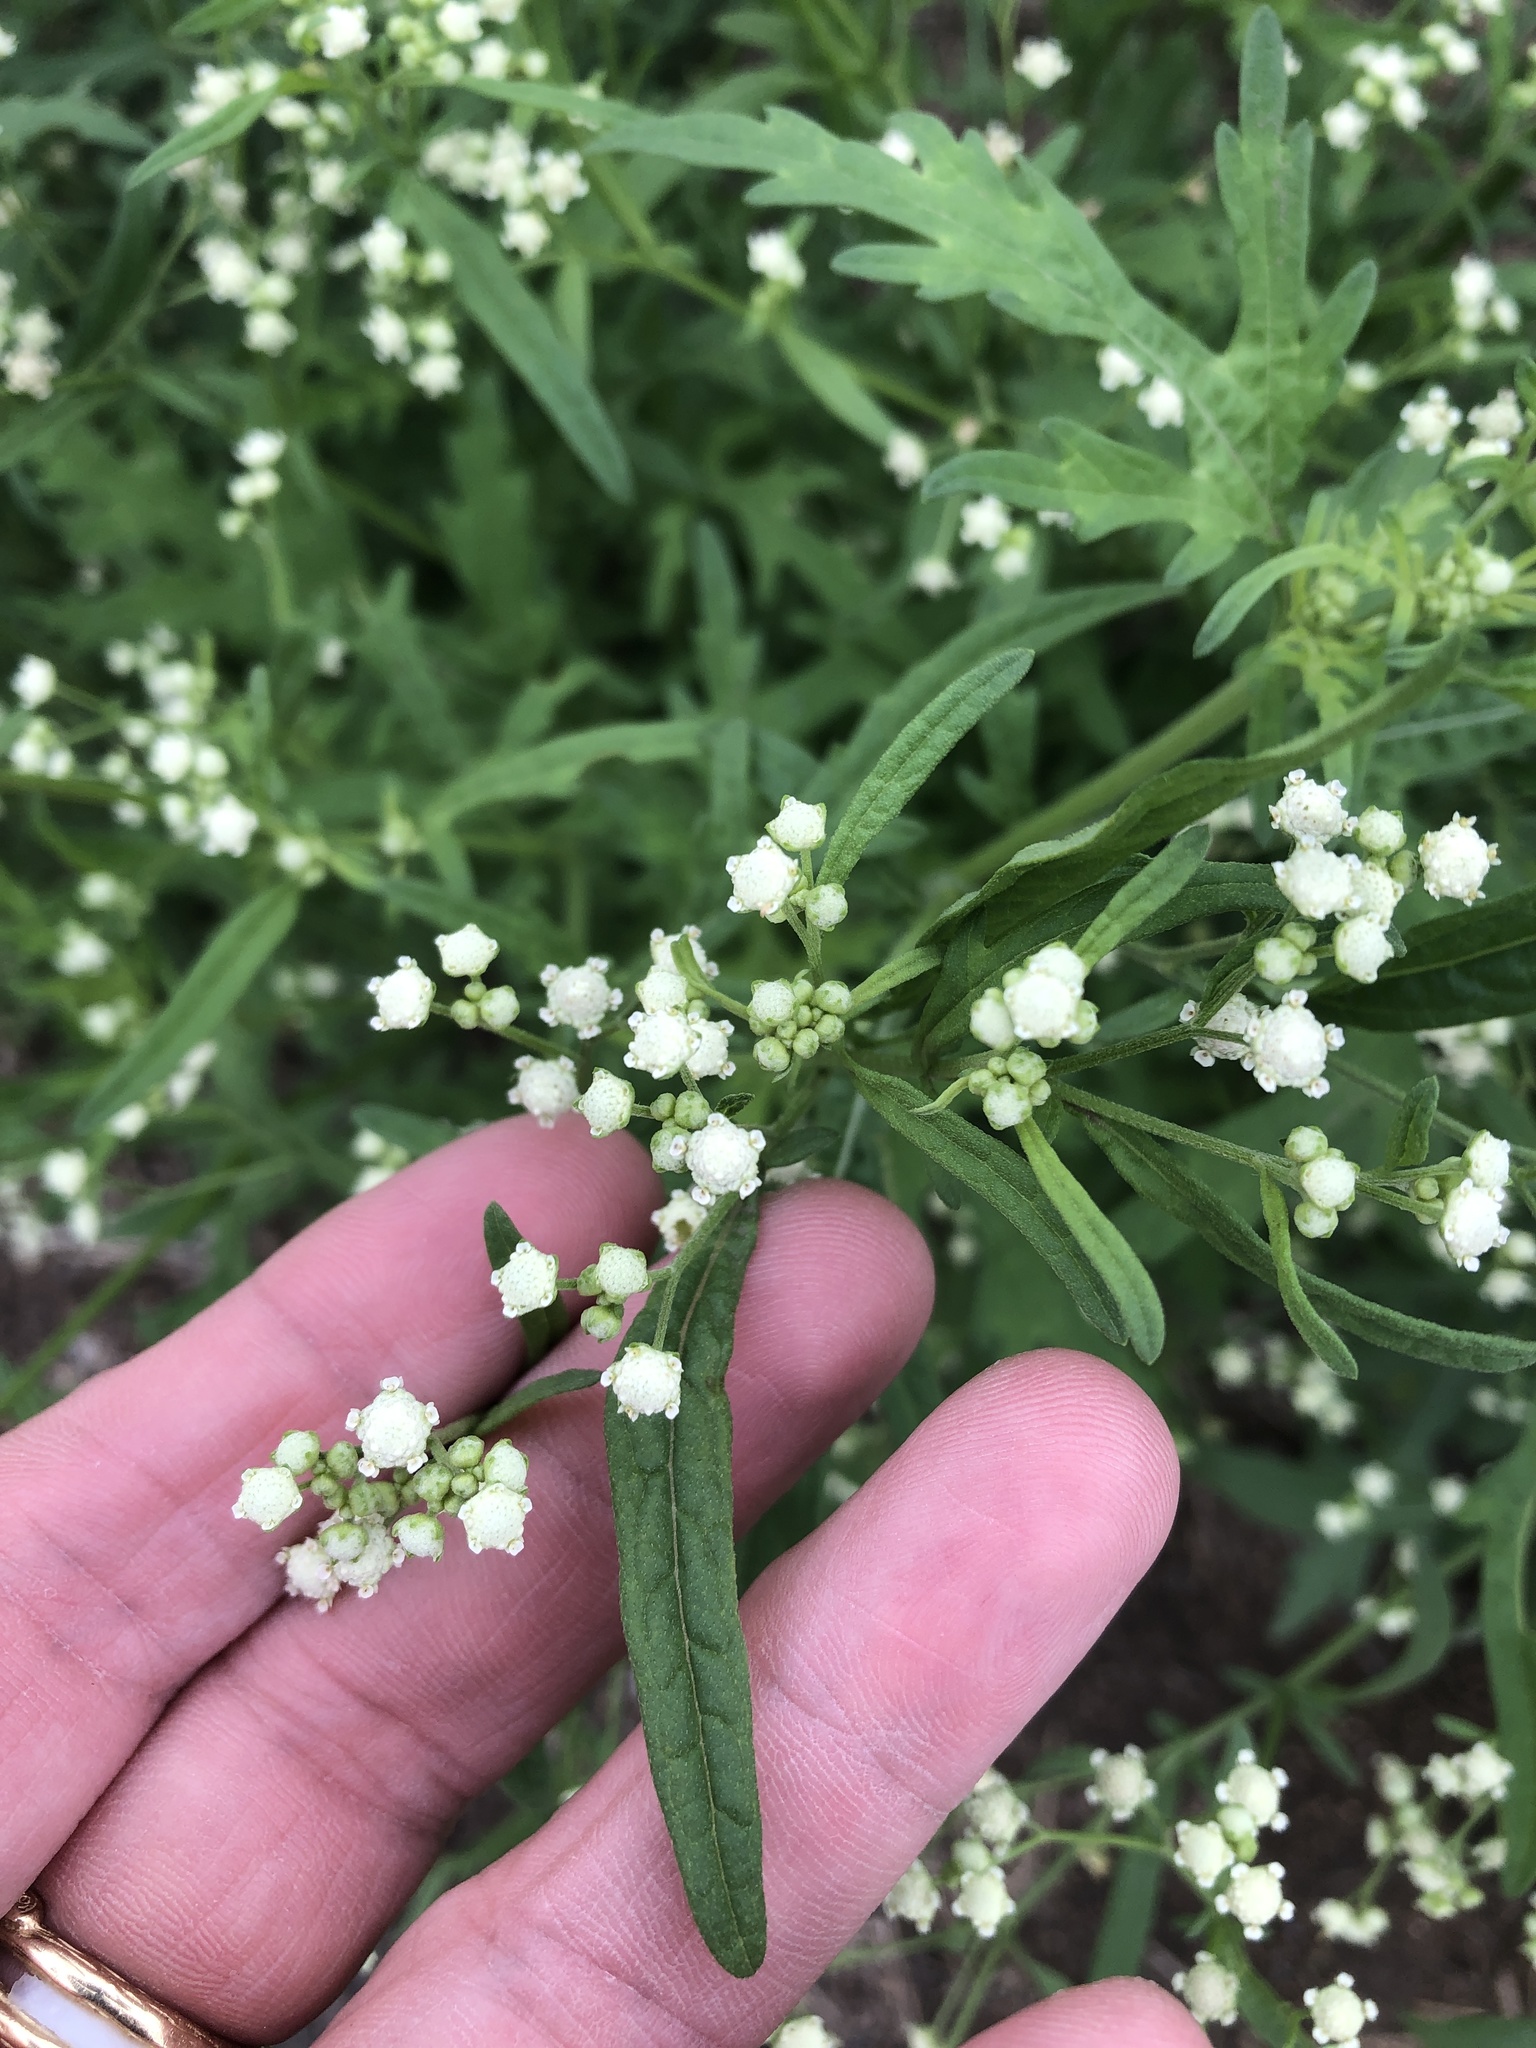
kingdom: Plantae
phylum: Tracheophyta
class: Magnoliopsida
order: Asterales
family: Asteraceae
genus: Parthenium
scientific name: Parthenium hysterophorus
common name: Santa maria feverfew
